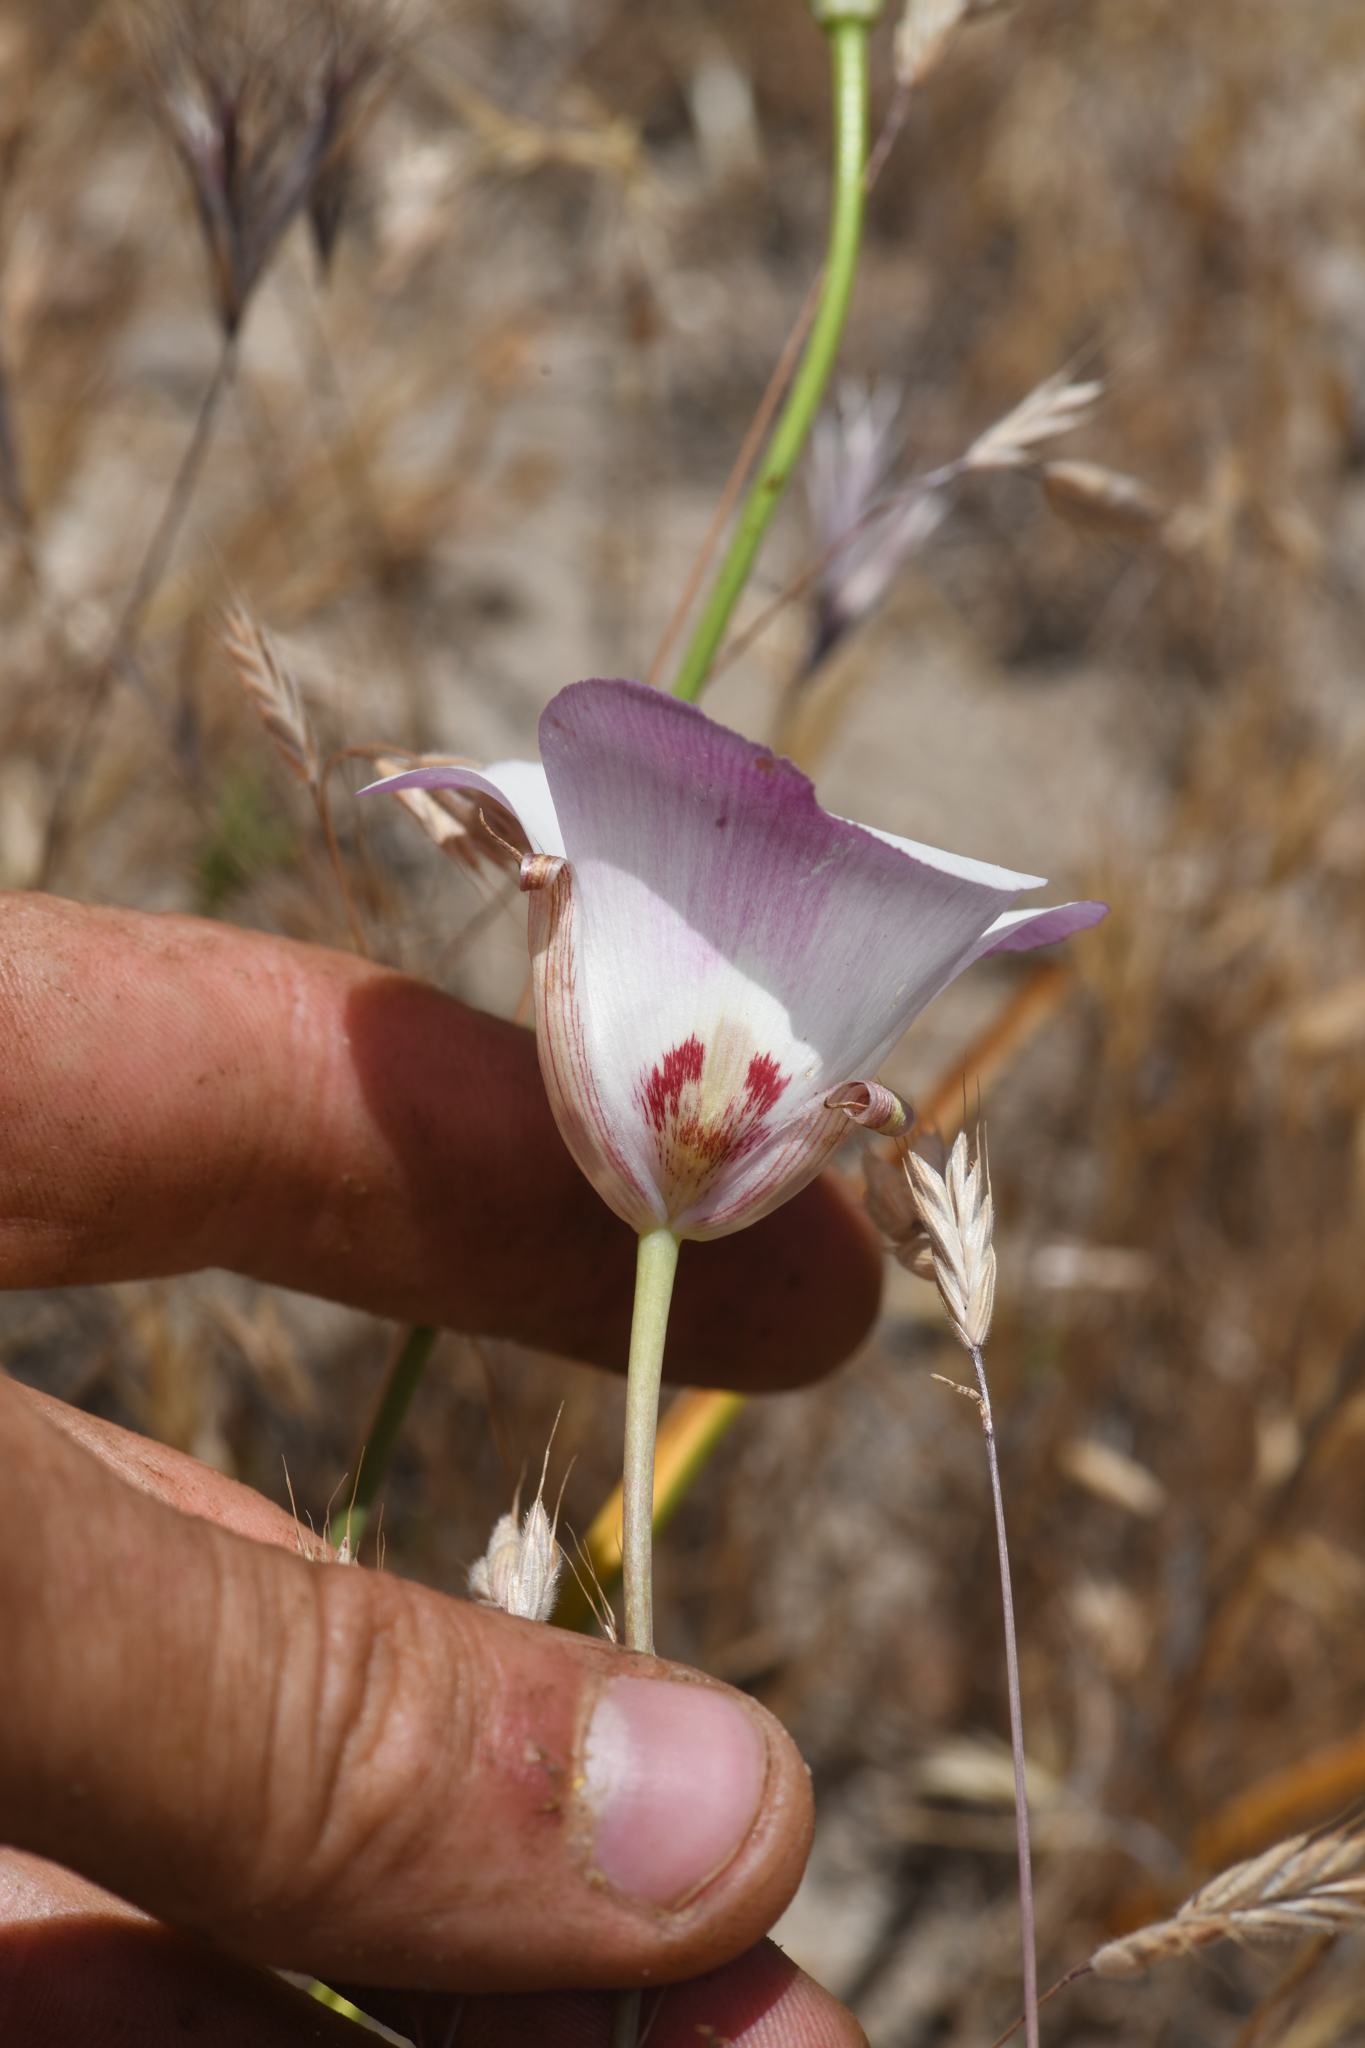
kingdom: Plantae
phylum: Tracheophyta
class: Liliopsida
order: Liliales
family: Liliaceae
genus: Calochortus
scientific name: Calochortus simulans
